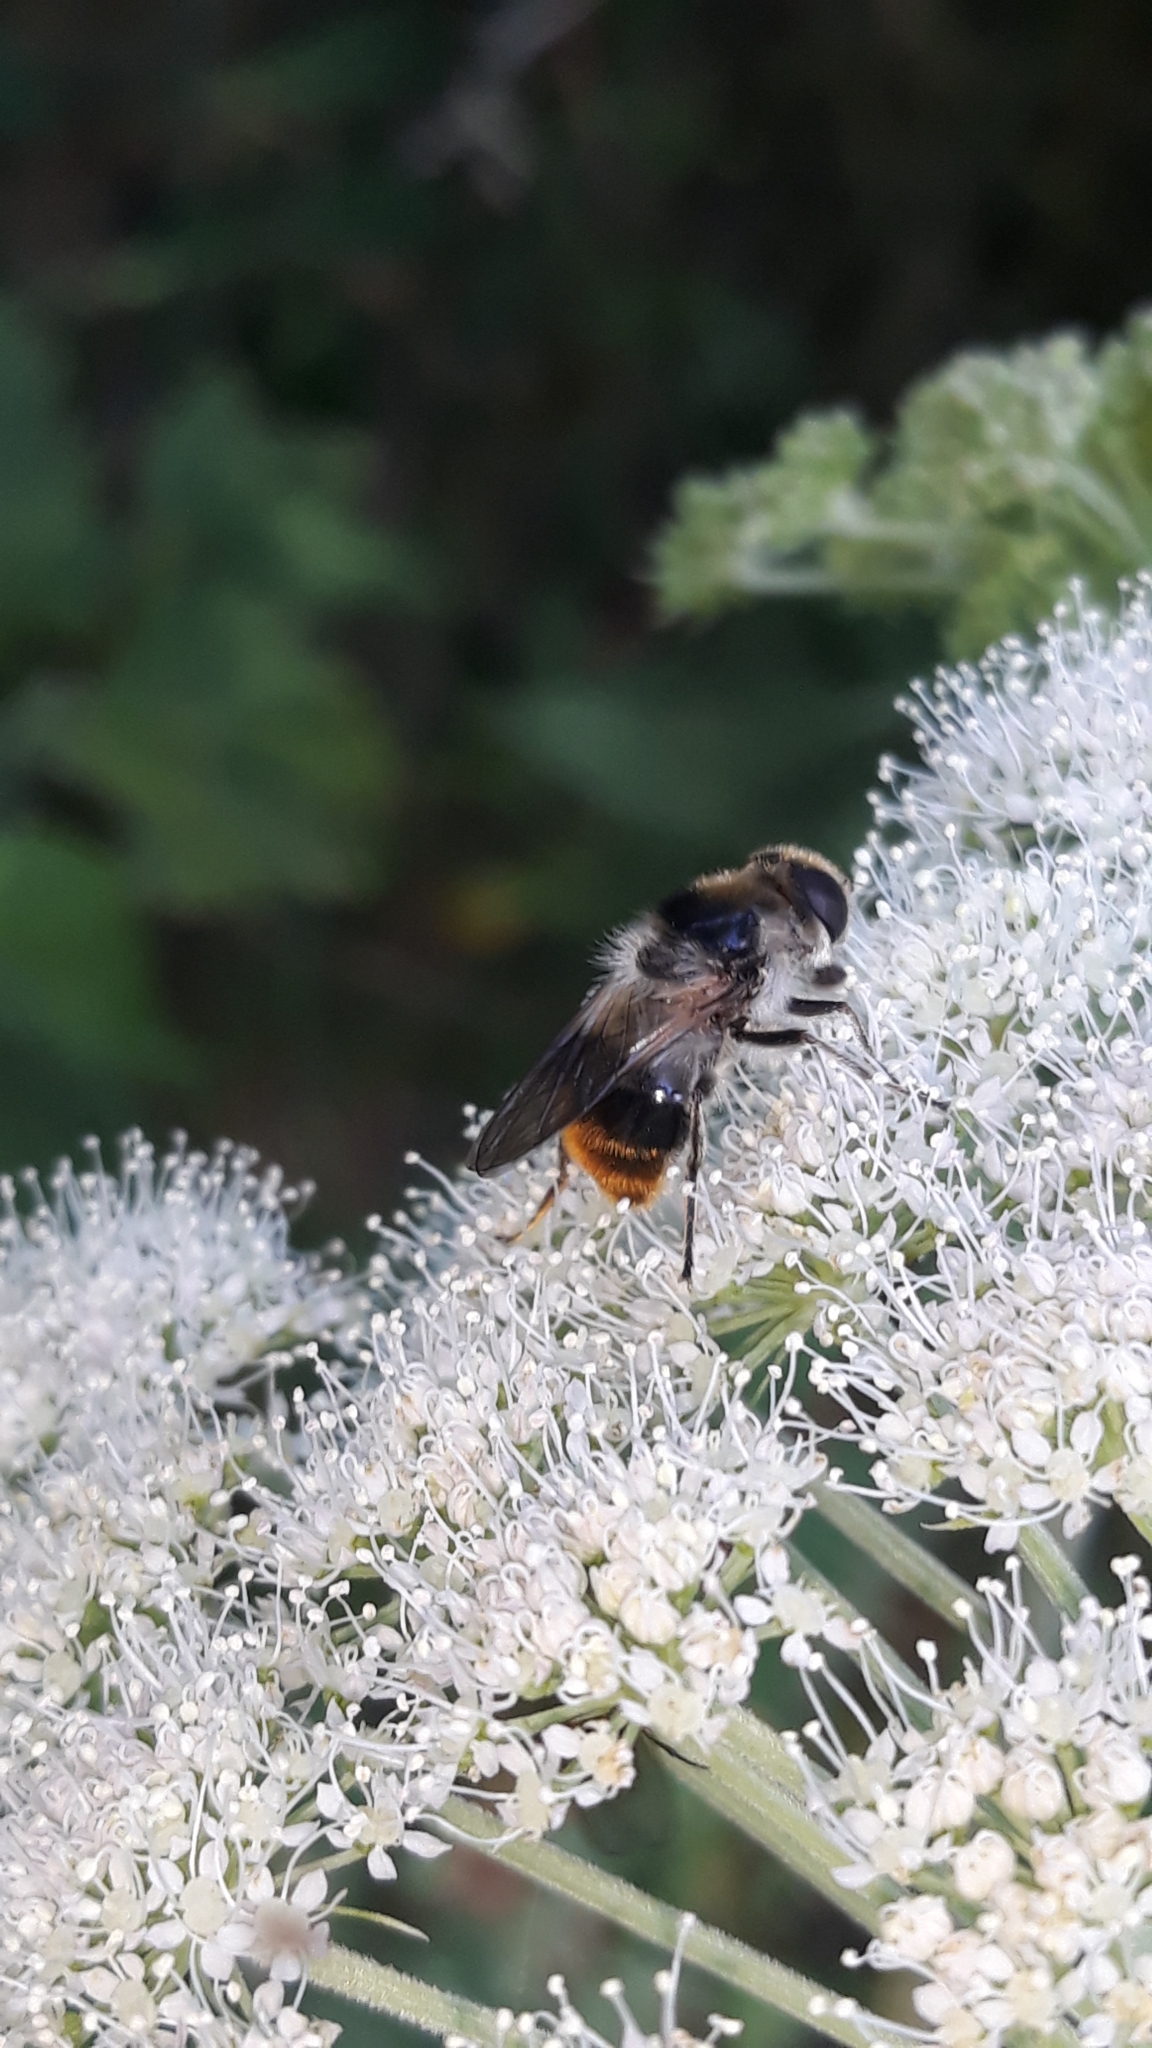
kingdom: Animalia
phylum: Arthropoda
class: Insecta
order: Diptera
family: Syrphidae
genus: Cheilosia
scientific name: Cheilosia illustrata
